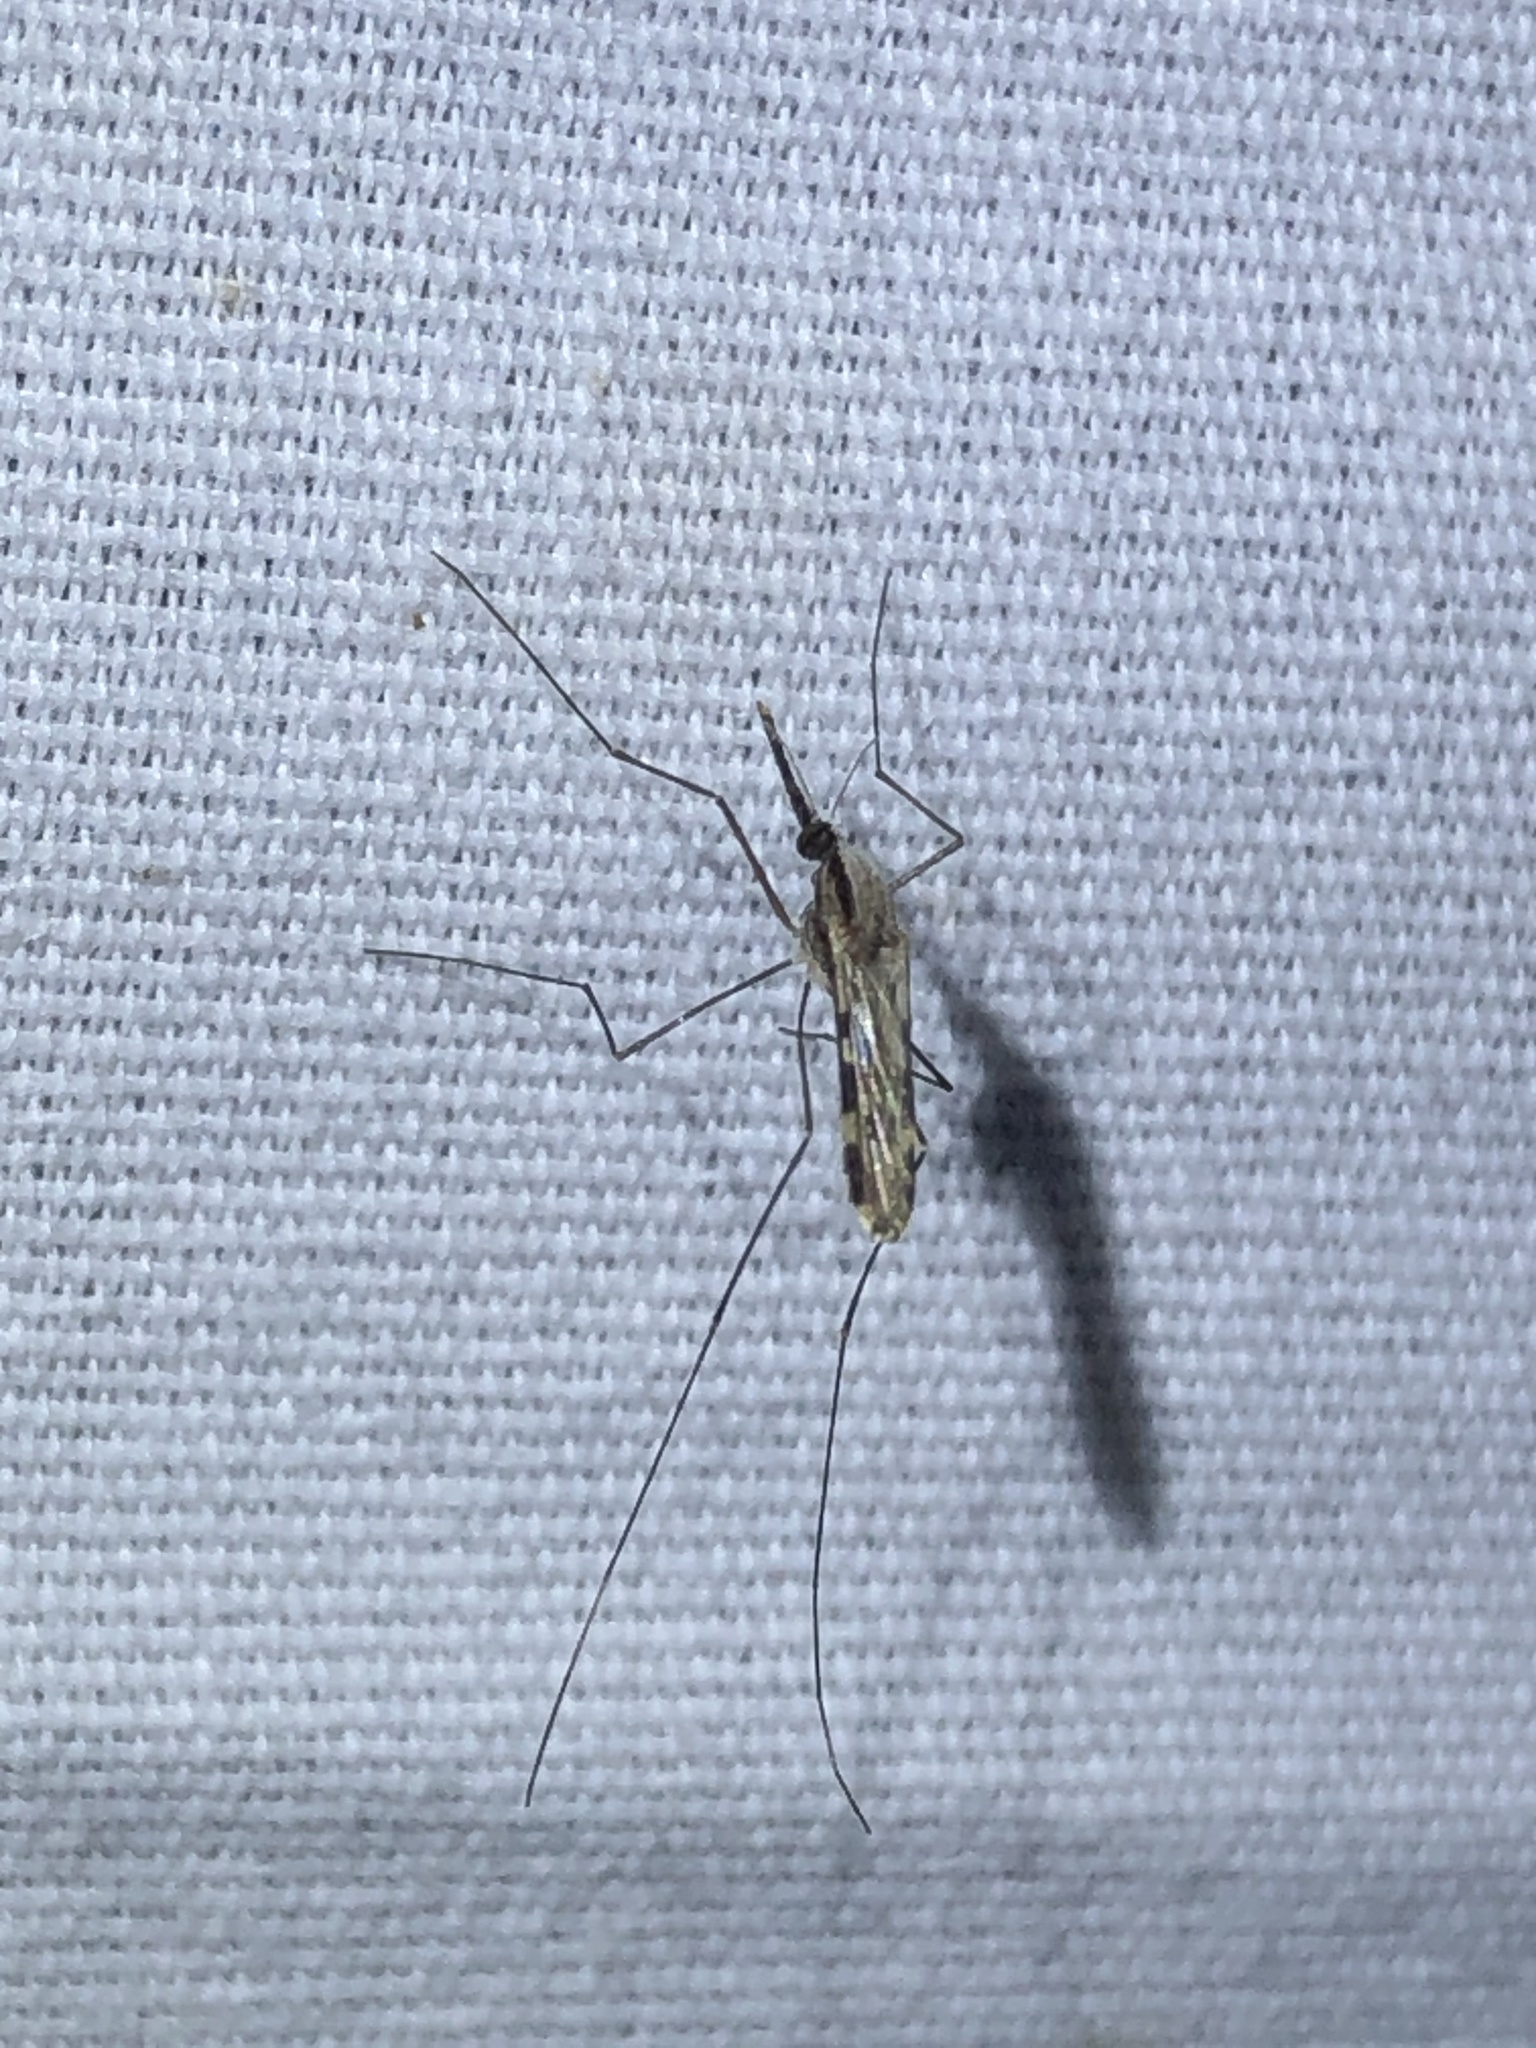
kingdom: Animalia
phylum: Arthropoda
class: Insecta
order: Diptera
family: Culicidae
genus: Anopheles
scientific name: Anopheles punctipennis
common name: Woodland malaria mosquito
